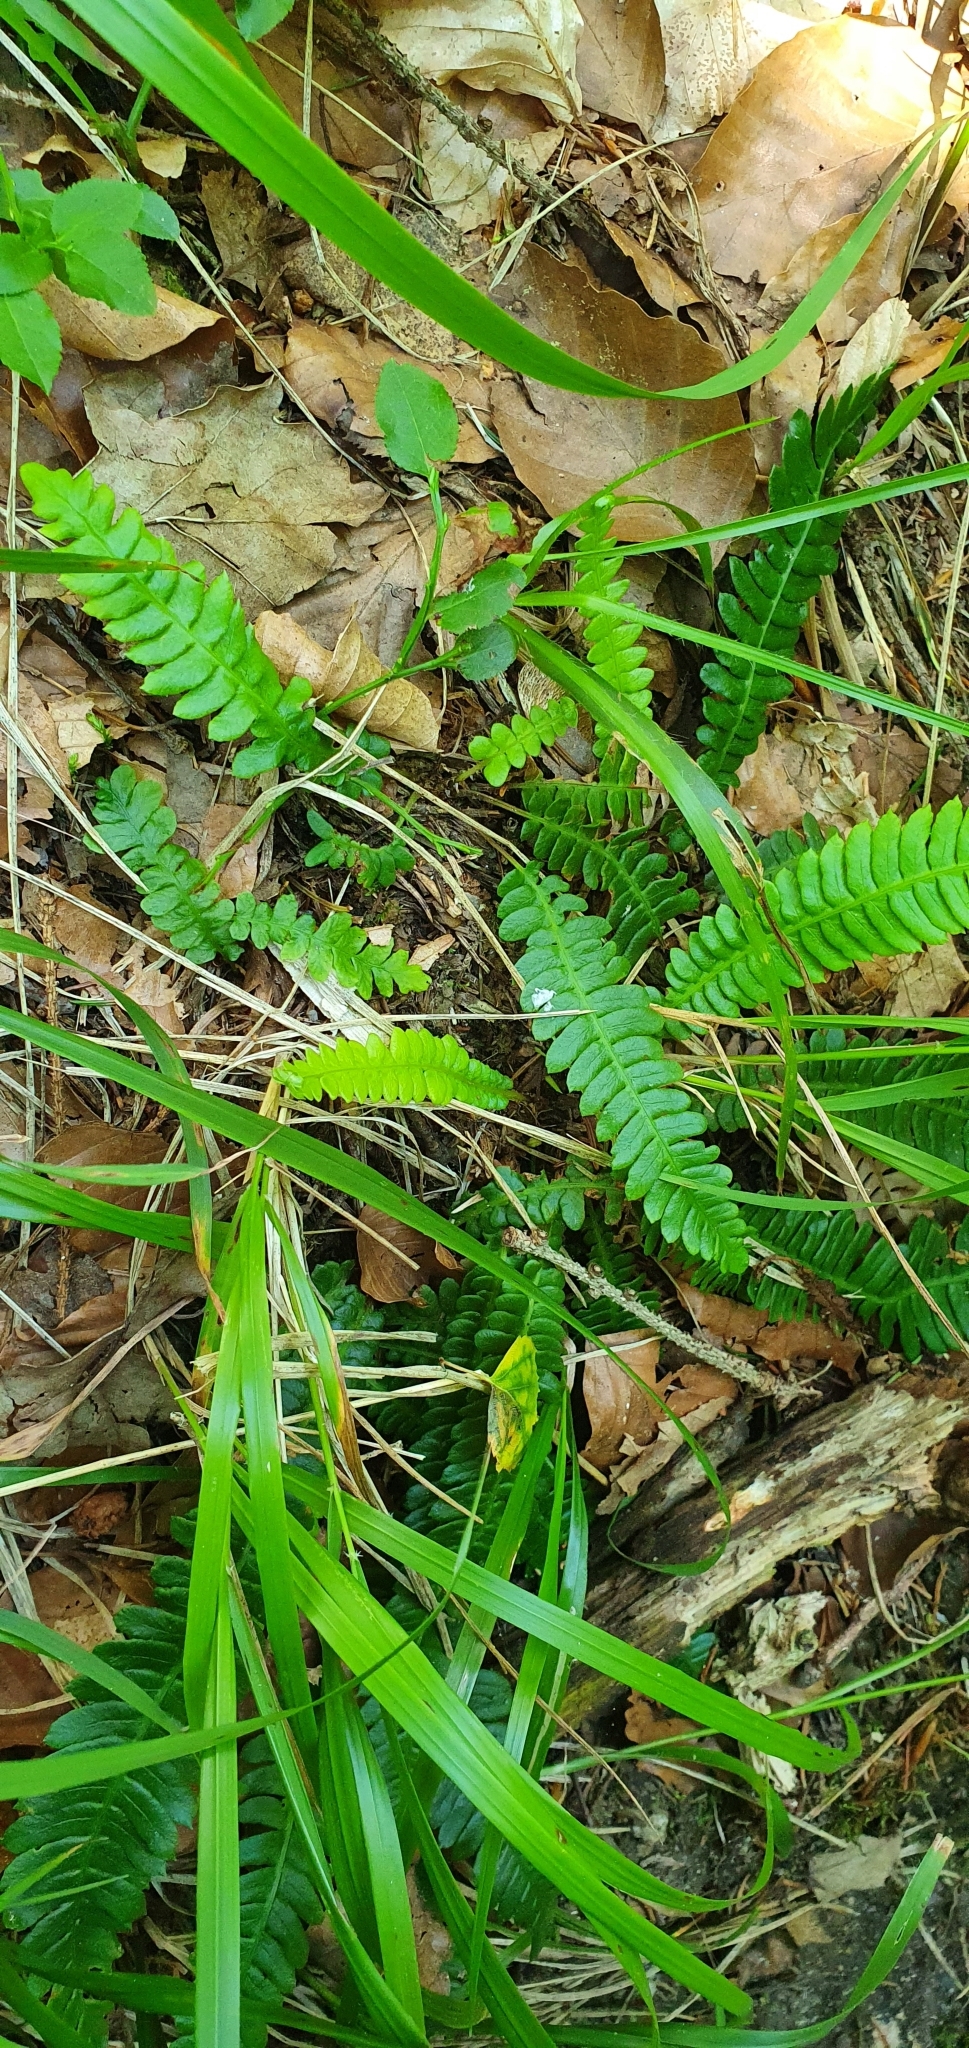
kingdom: Plantae
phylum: Tracheophyta
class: Polypodiopsida
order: Polypodiales
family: Blechnaceae
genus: Struthiopteris
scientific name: Struthiopteris spicant
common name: Deer fern
